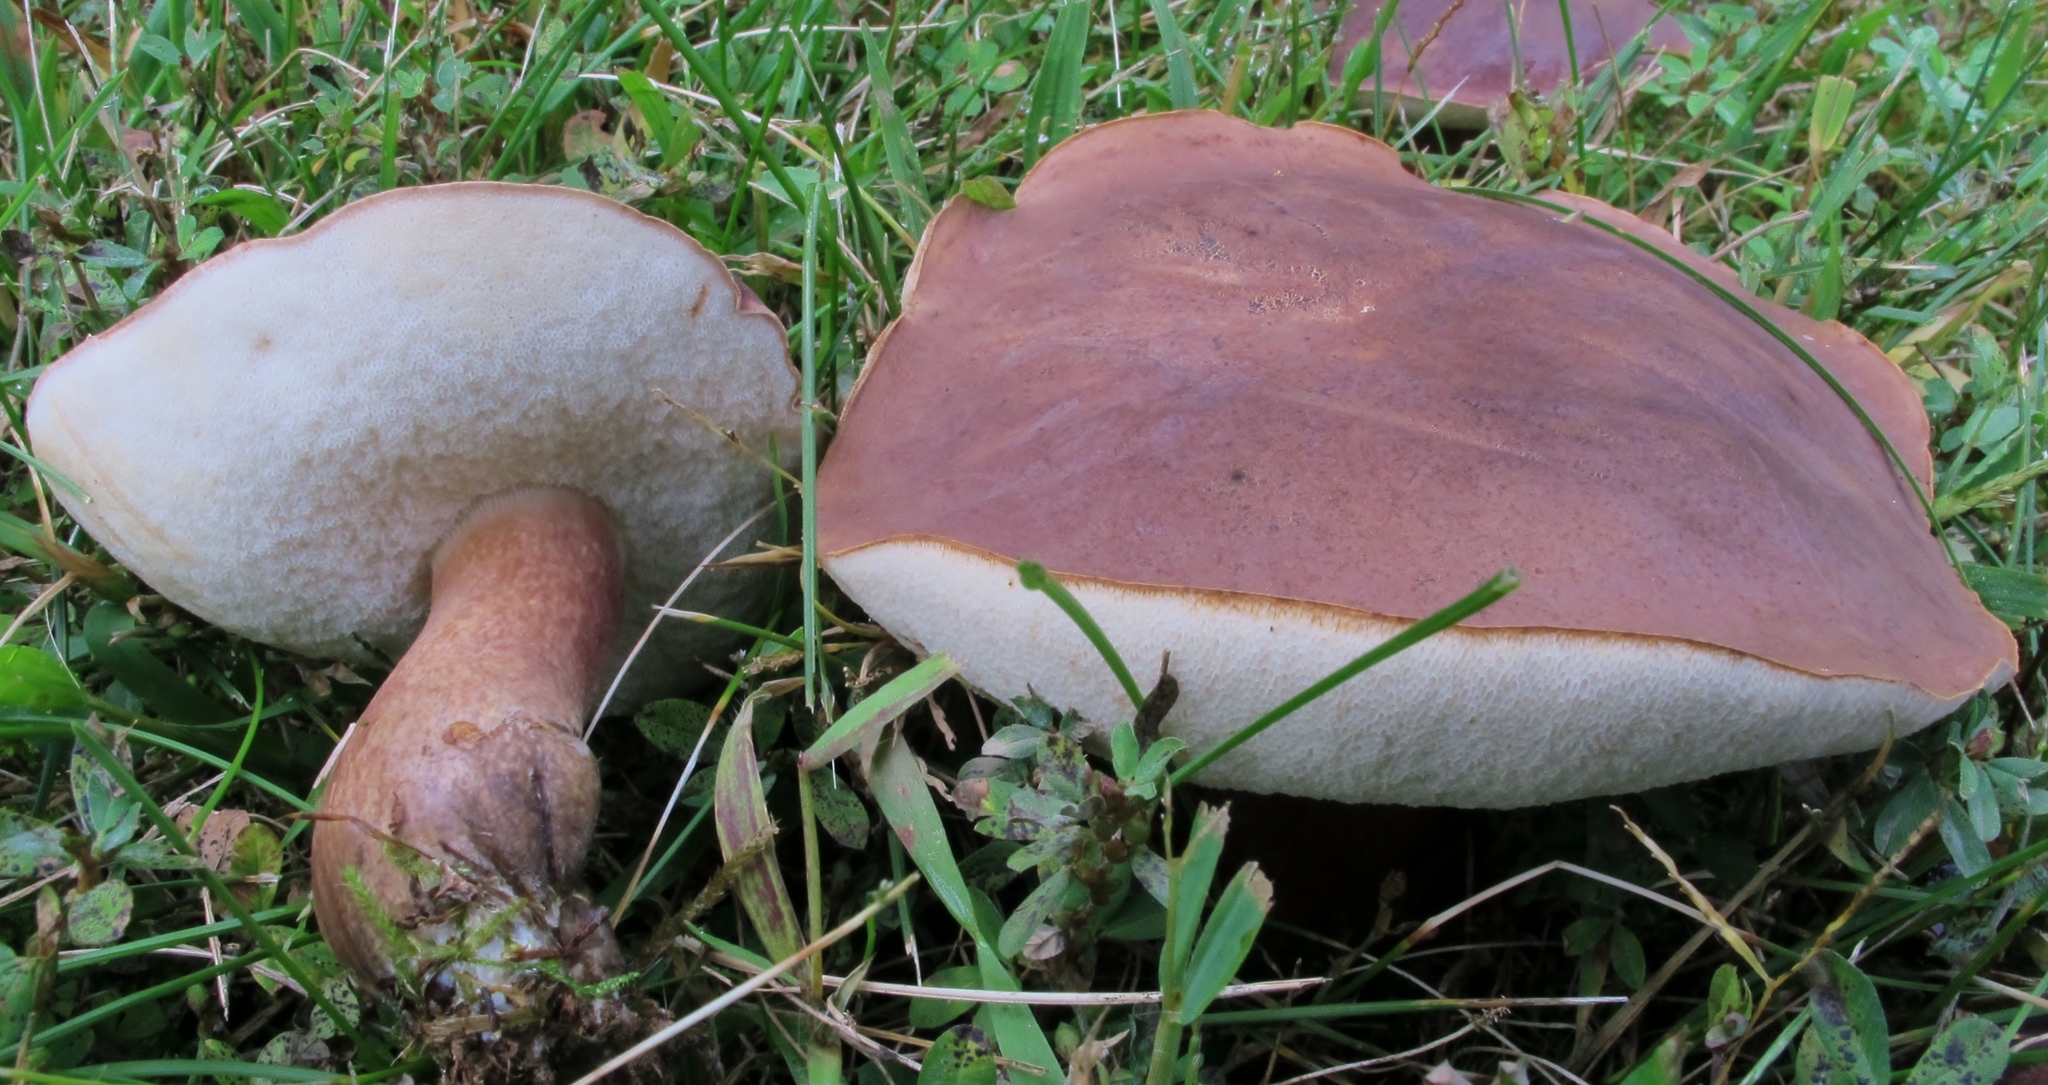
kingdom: Fungi
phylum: Basidiomycota
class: Agaricomycetes
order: Boletales
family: Boletaceae
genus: Tylopilus
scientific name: Tylopilus ferrugineus
